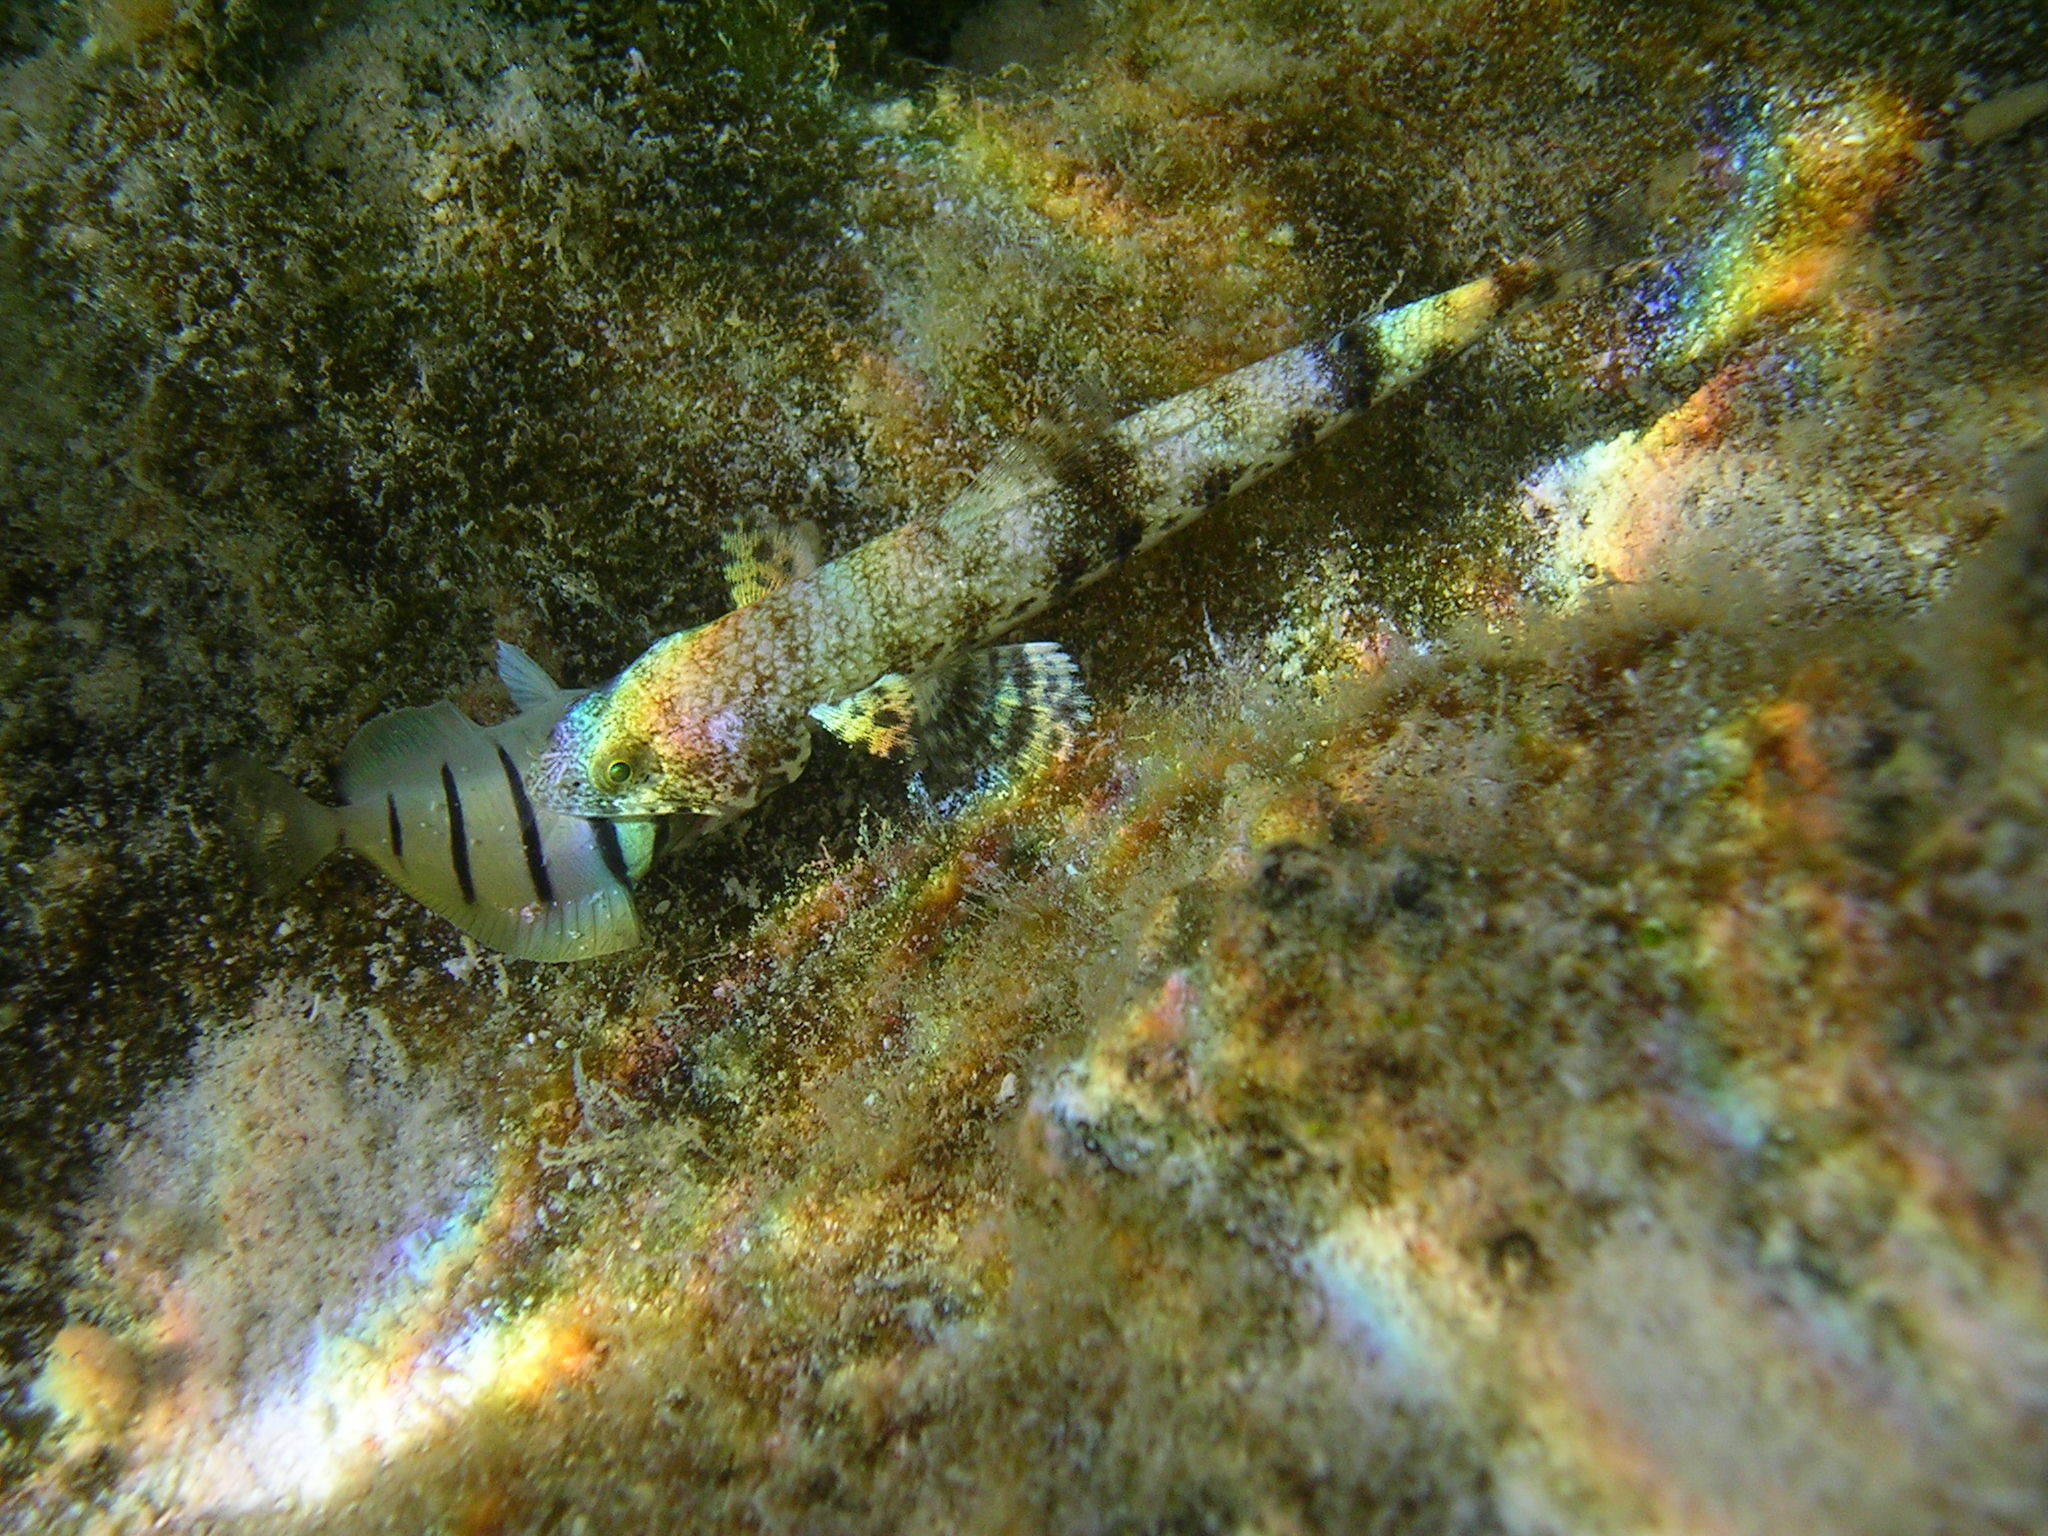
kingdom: Animalia
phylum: Chordata
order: Perciformes
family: Acanthuridae
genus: Acanthurus
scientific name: Acanthurus triostegus
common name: Convict surgeonfish
